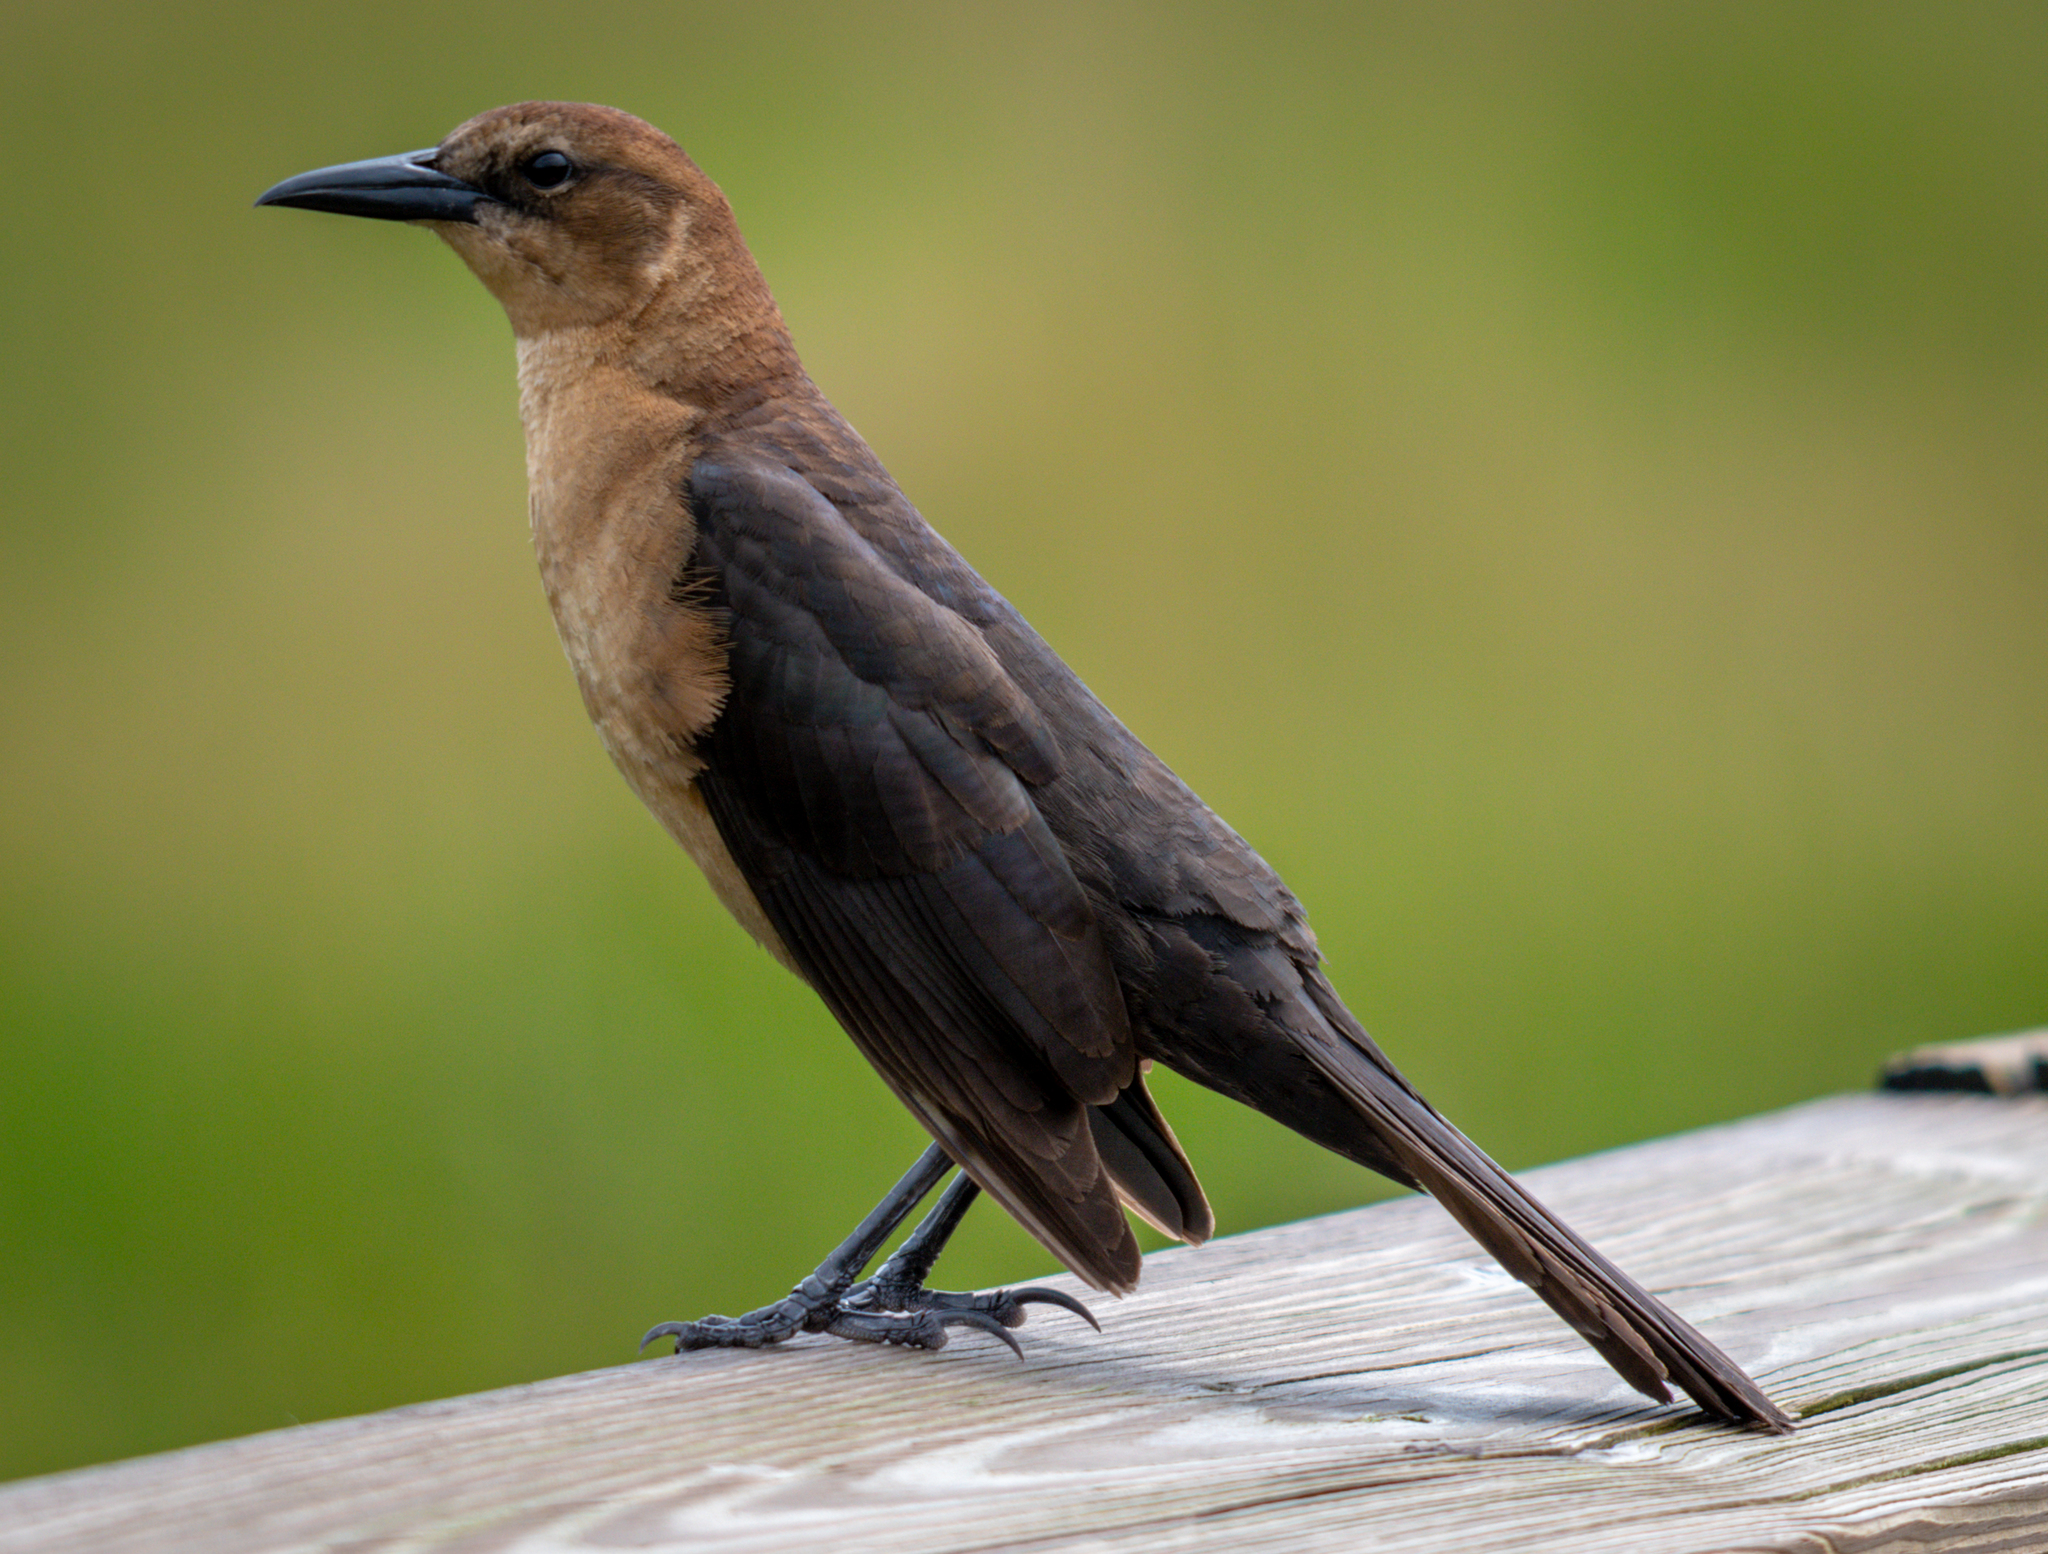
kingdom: Animalia
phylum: Chordata
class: Aves
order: Passeriformes
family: Icteridae
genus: Quiscalus
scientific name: Quiscalus major
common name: Boat-tailed grackle
